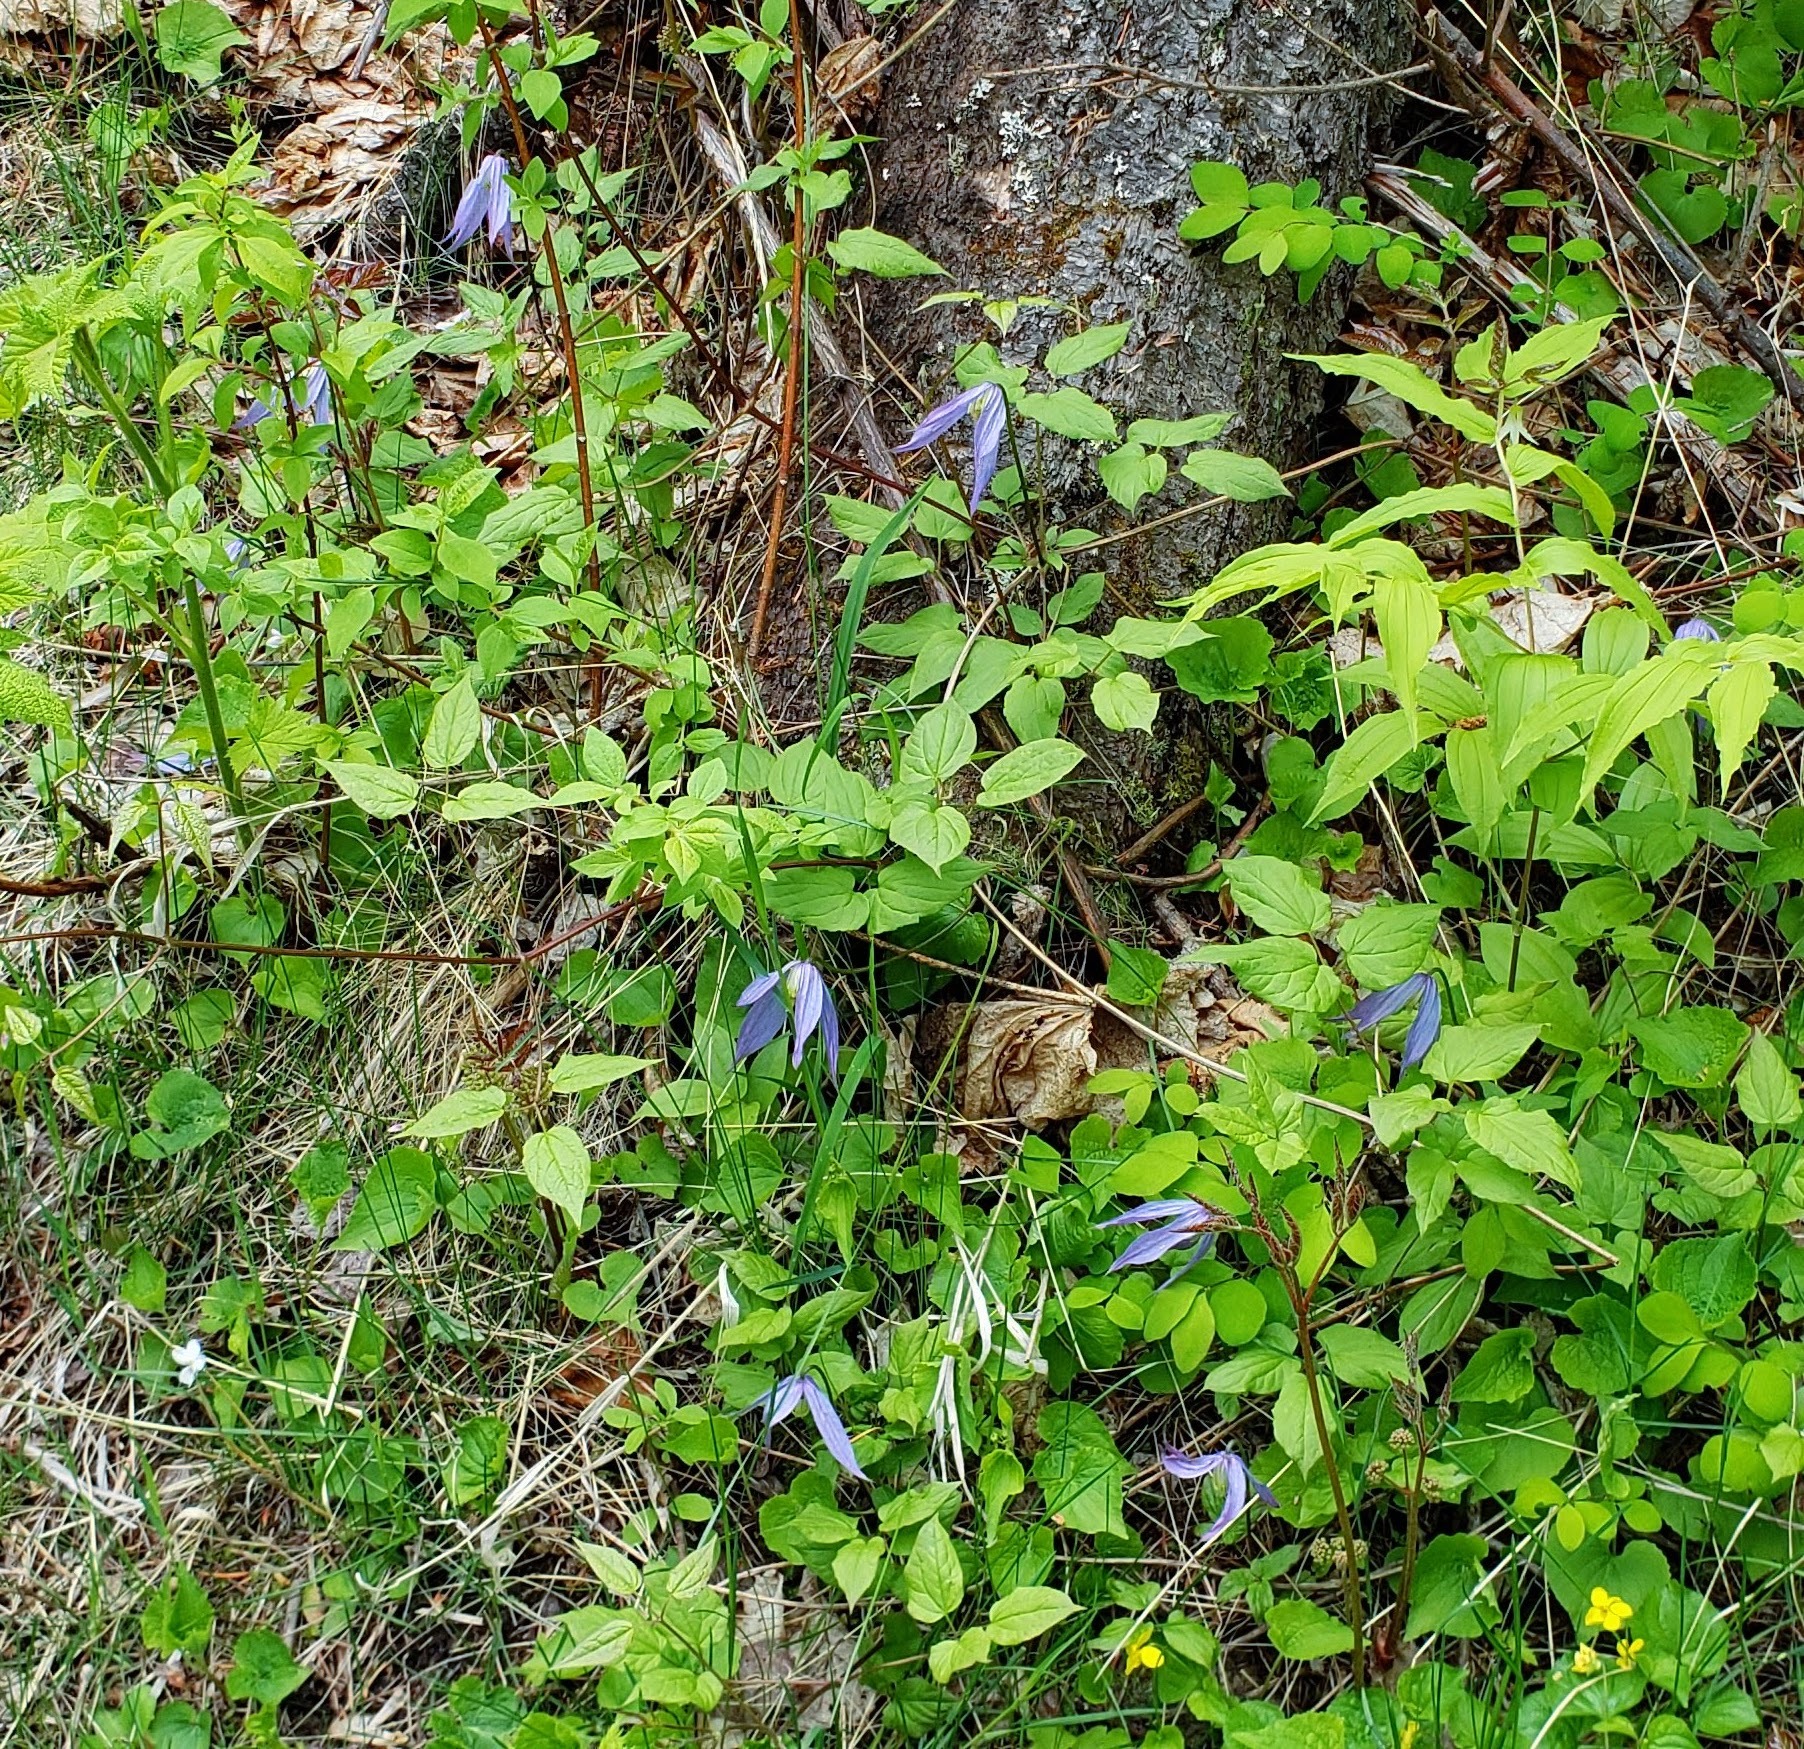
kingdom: Plantae
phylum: Tracheophyta
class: Magnoliopsida
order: Ranunculales
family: Ranunculaceae
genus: Clematis
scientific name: Clematis occidentalis
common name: Purple clematis
